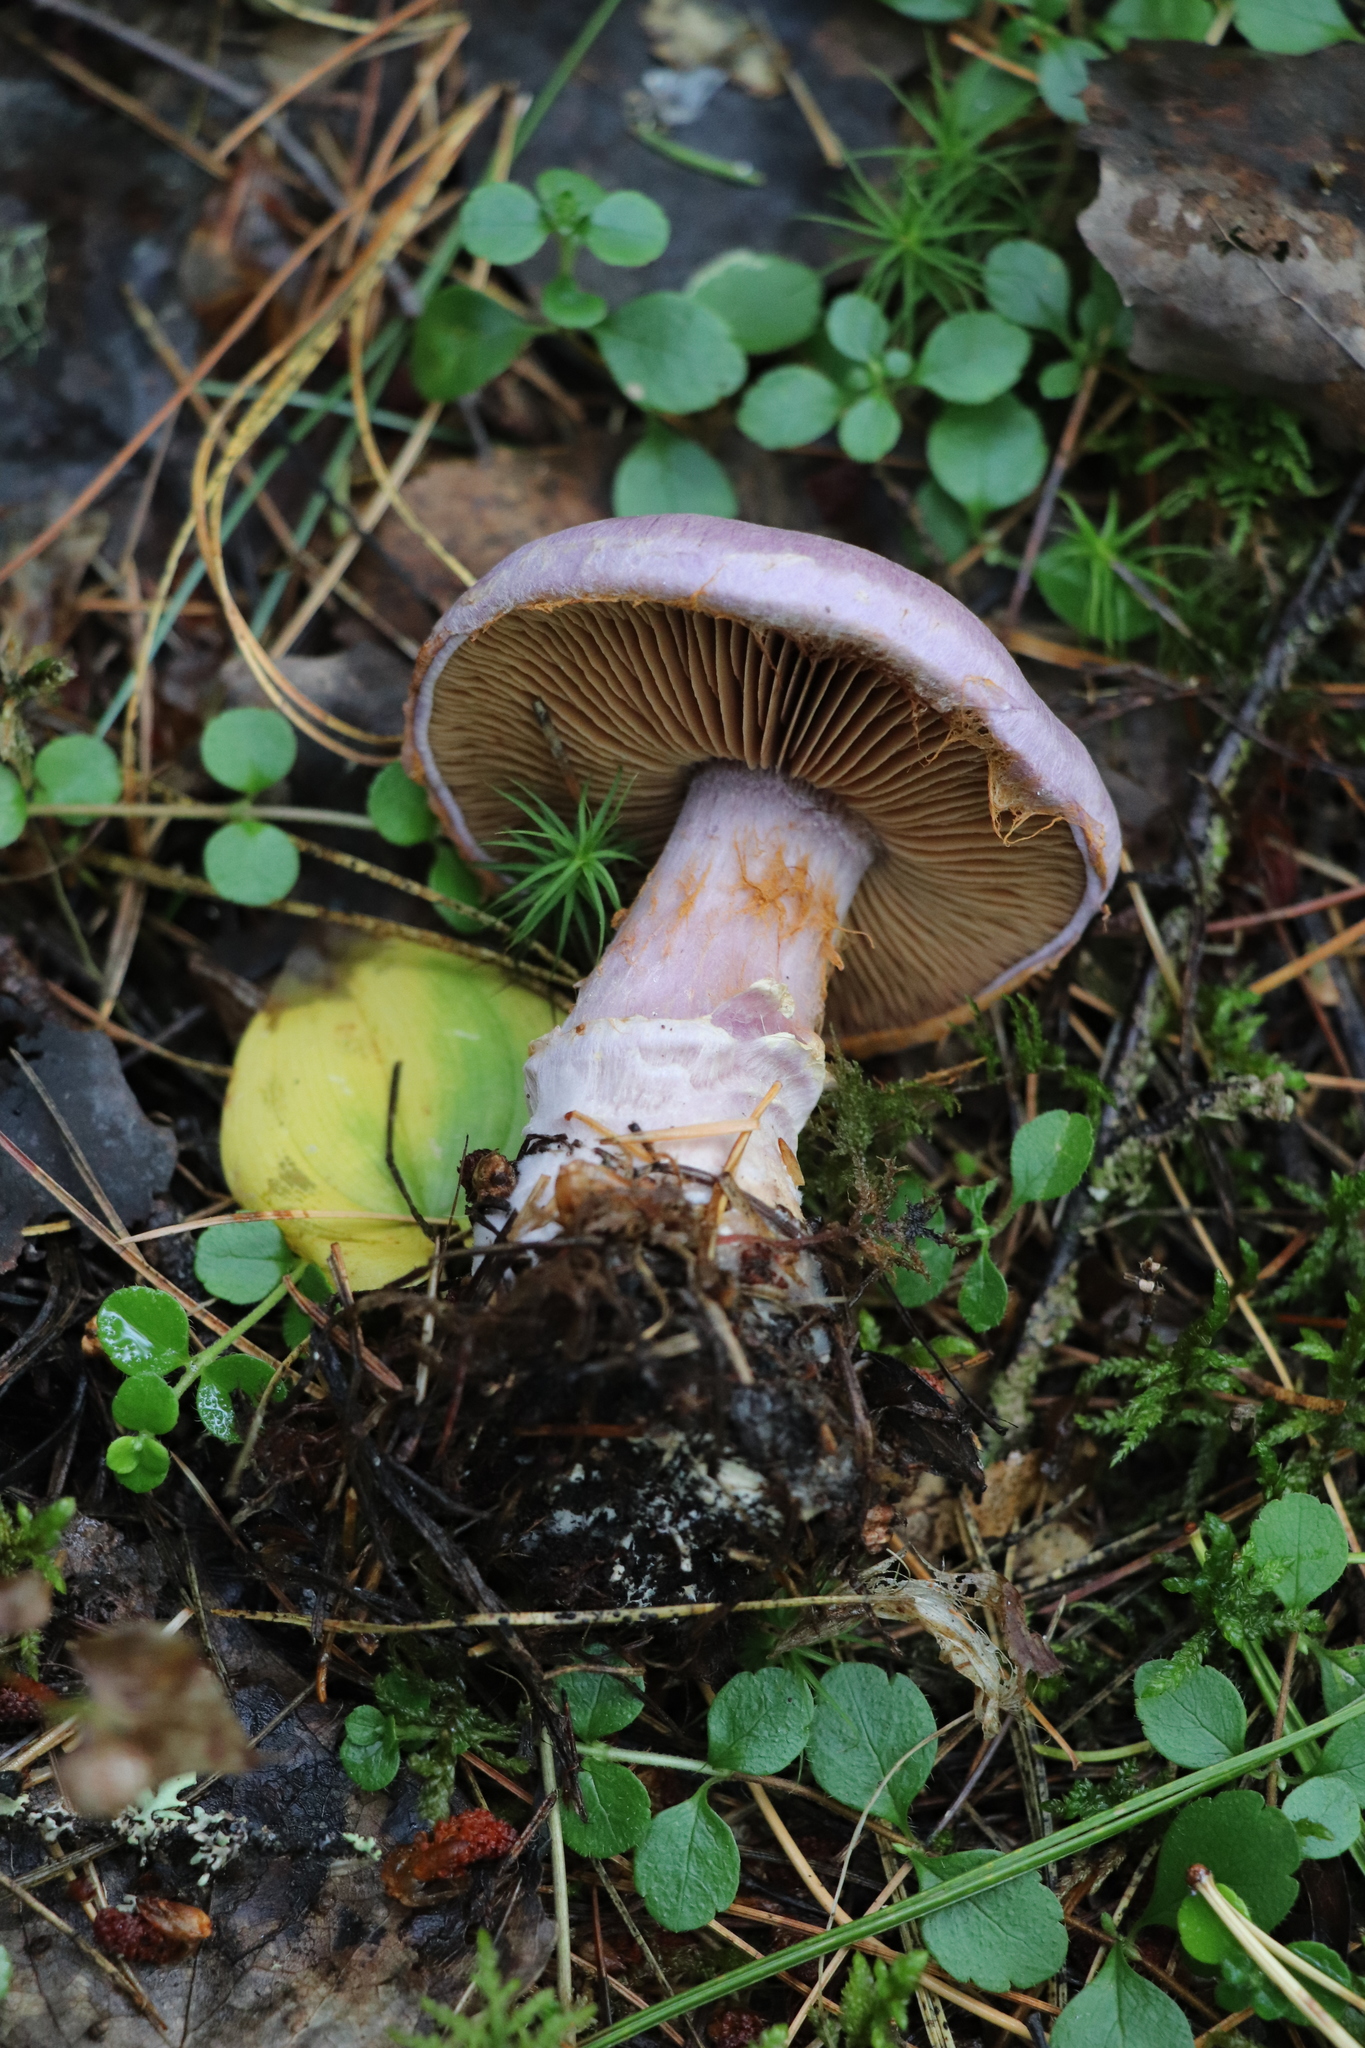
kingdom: Fungi
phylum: Basidiomycota
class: Agaricomycetes
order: Agaricales
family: Cortinariaceae
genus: Cortinarius
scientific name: Cortinarius camphoratus
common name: Goatcheese webcap
